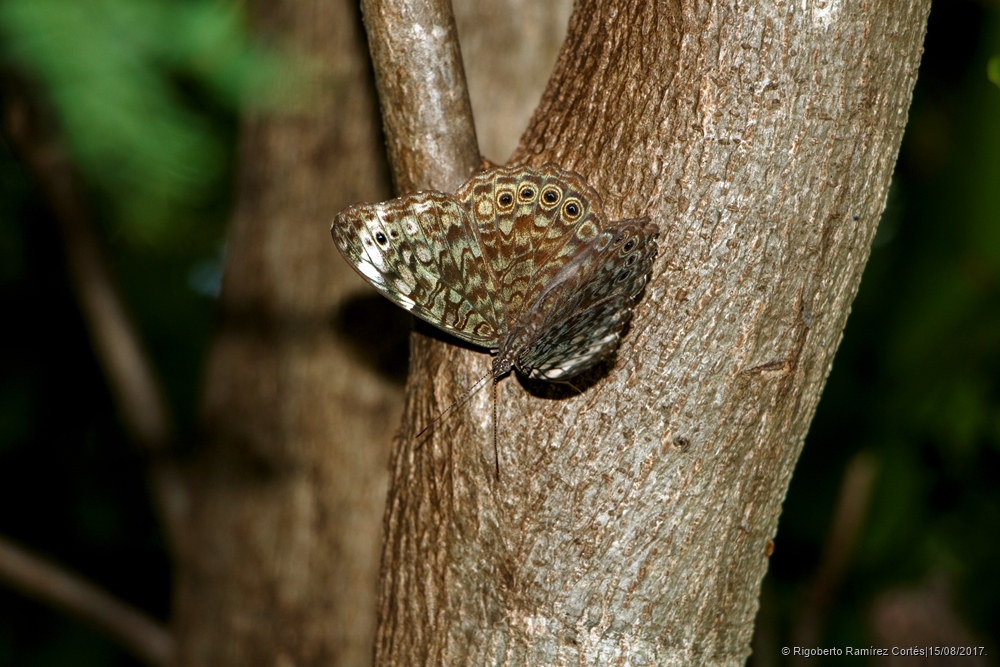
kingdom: Animalia
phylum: Arthropoda
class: Insecta
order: Lepidoptera
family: Nymphalidae
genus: Hamadryas
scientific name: Hamadryas atlantis
